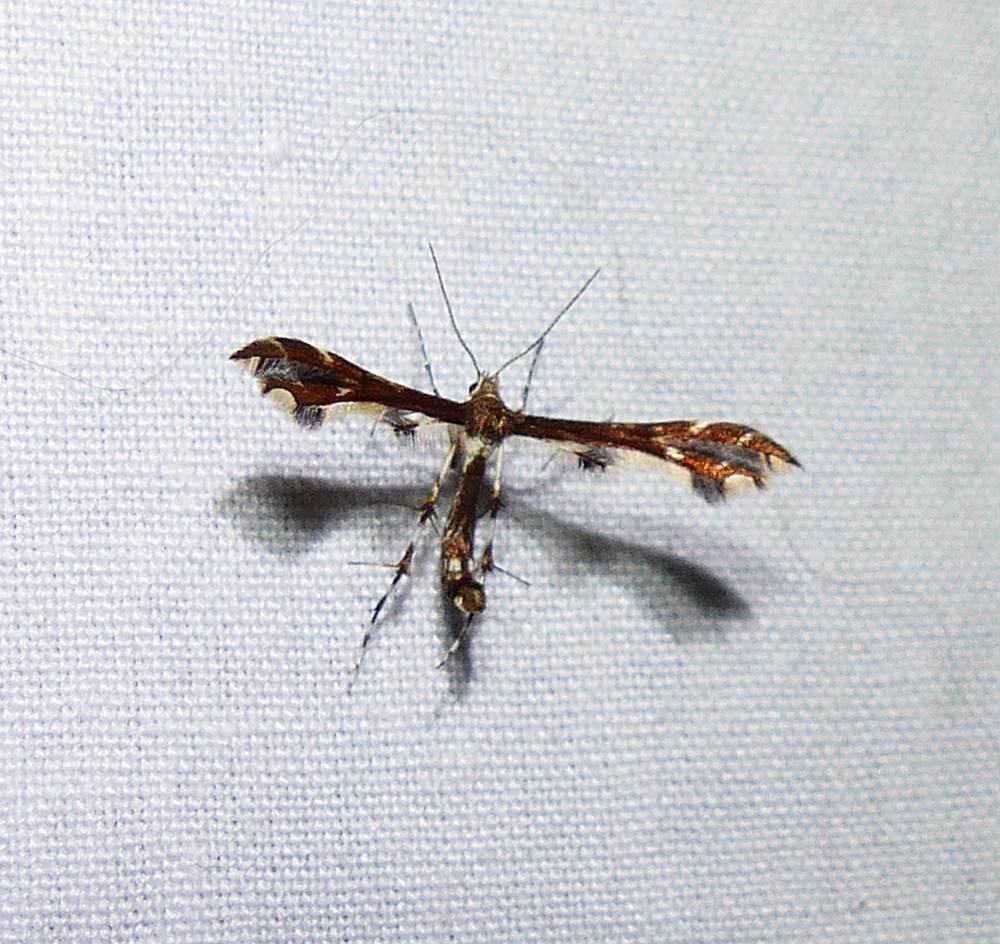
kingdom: Animalia
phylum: Arthropoda
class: Insecta
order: Lepidoptera
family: Pterophoridae
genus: Geina
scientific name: Geina
